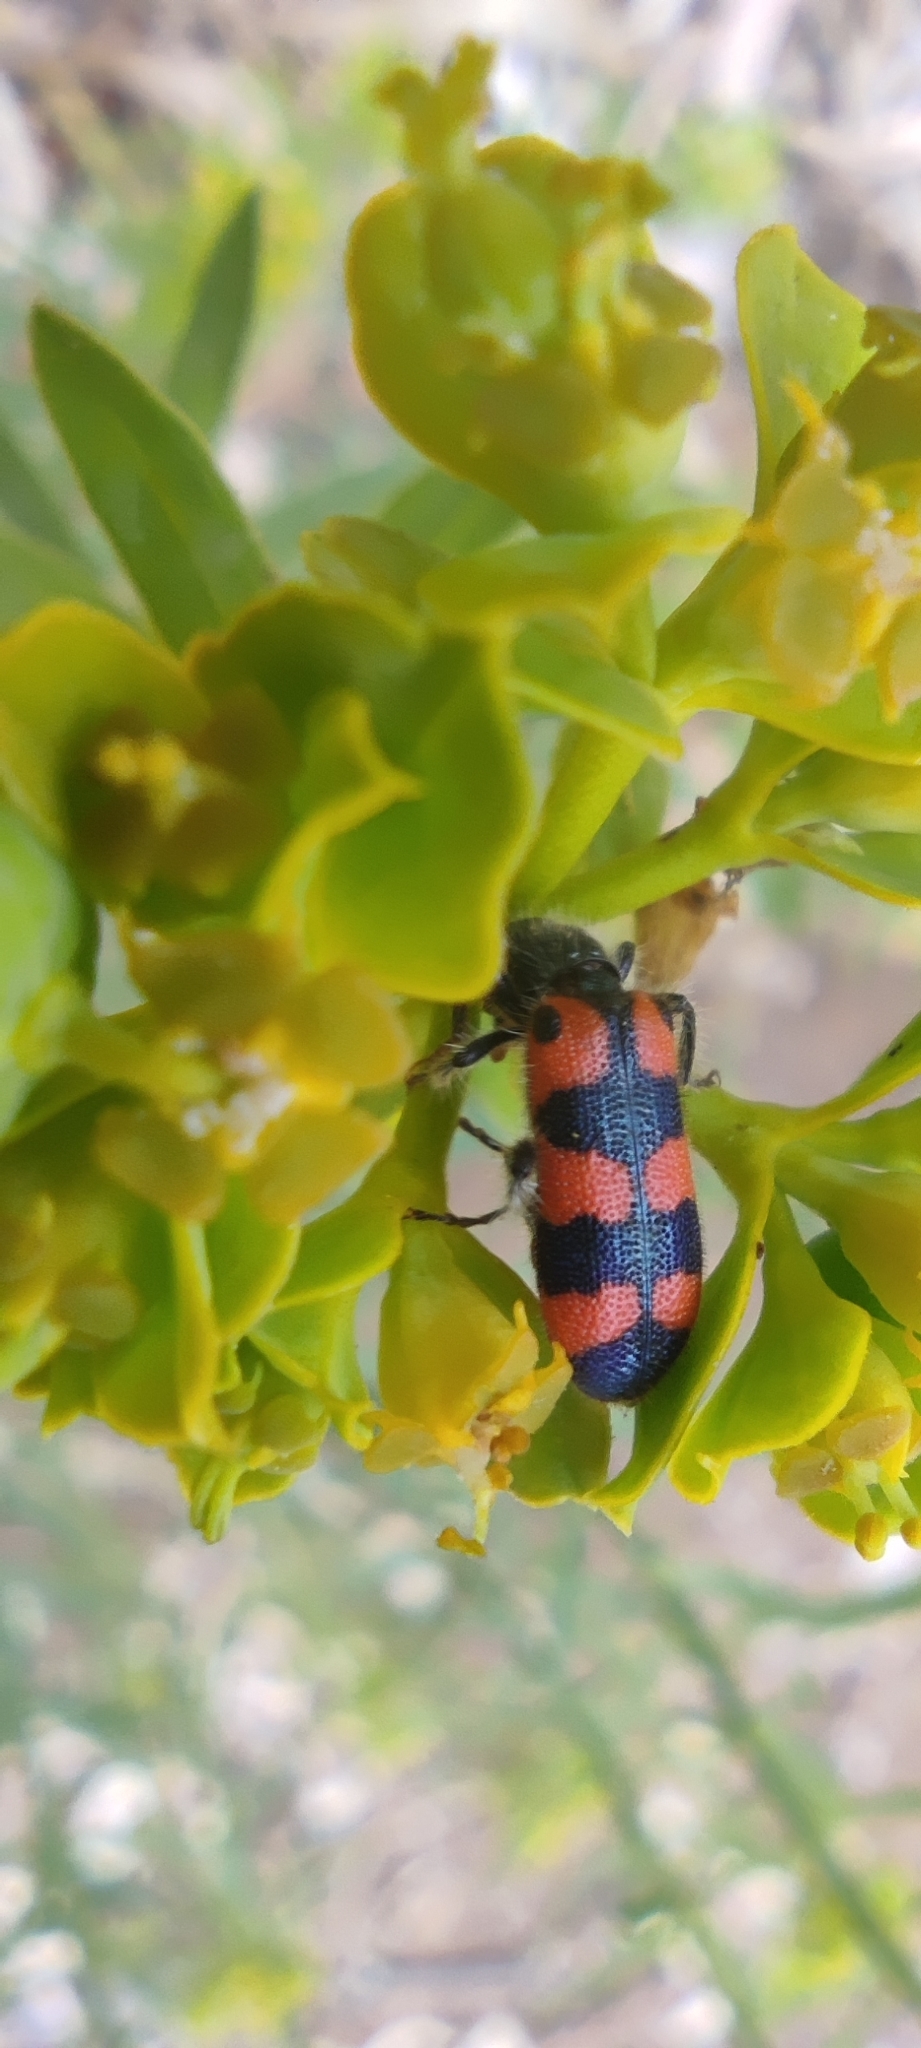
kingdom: Animalia
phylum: Arthropoda
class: Insecta
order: Coleoptera
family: Cleridae
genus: Trichodes
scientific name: Trichodes leucopsideus
